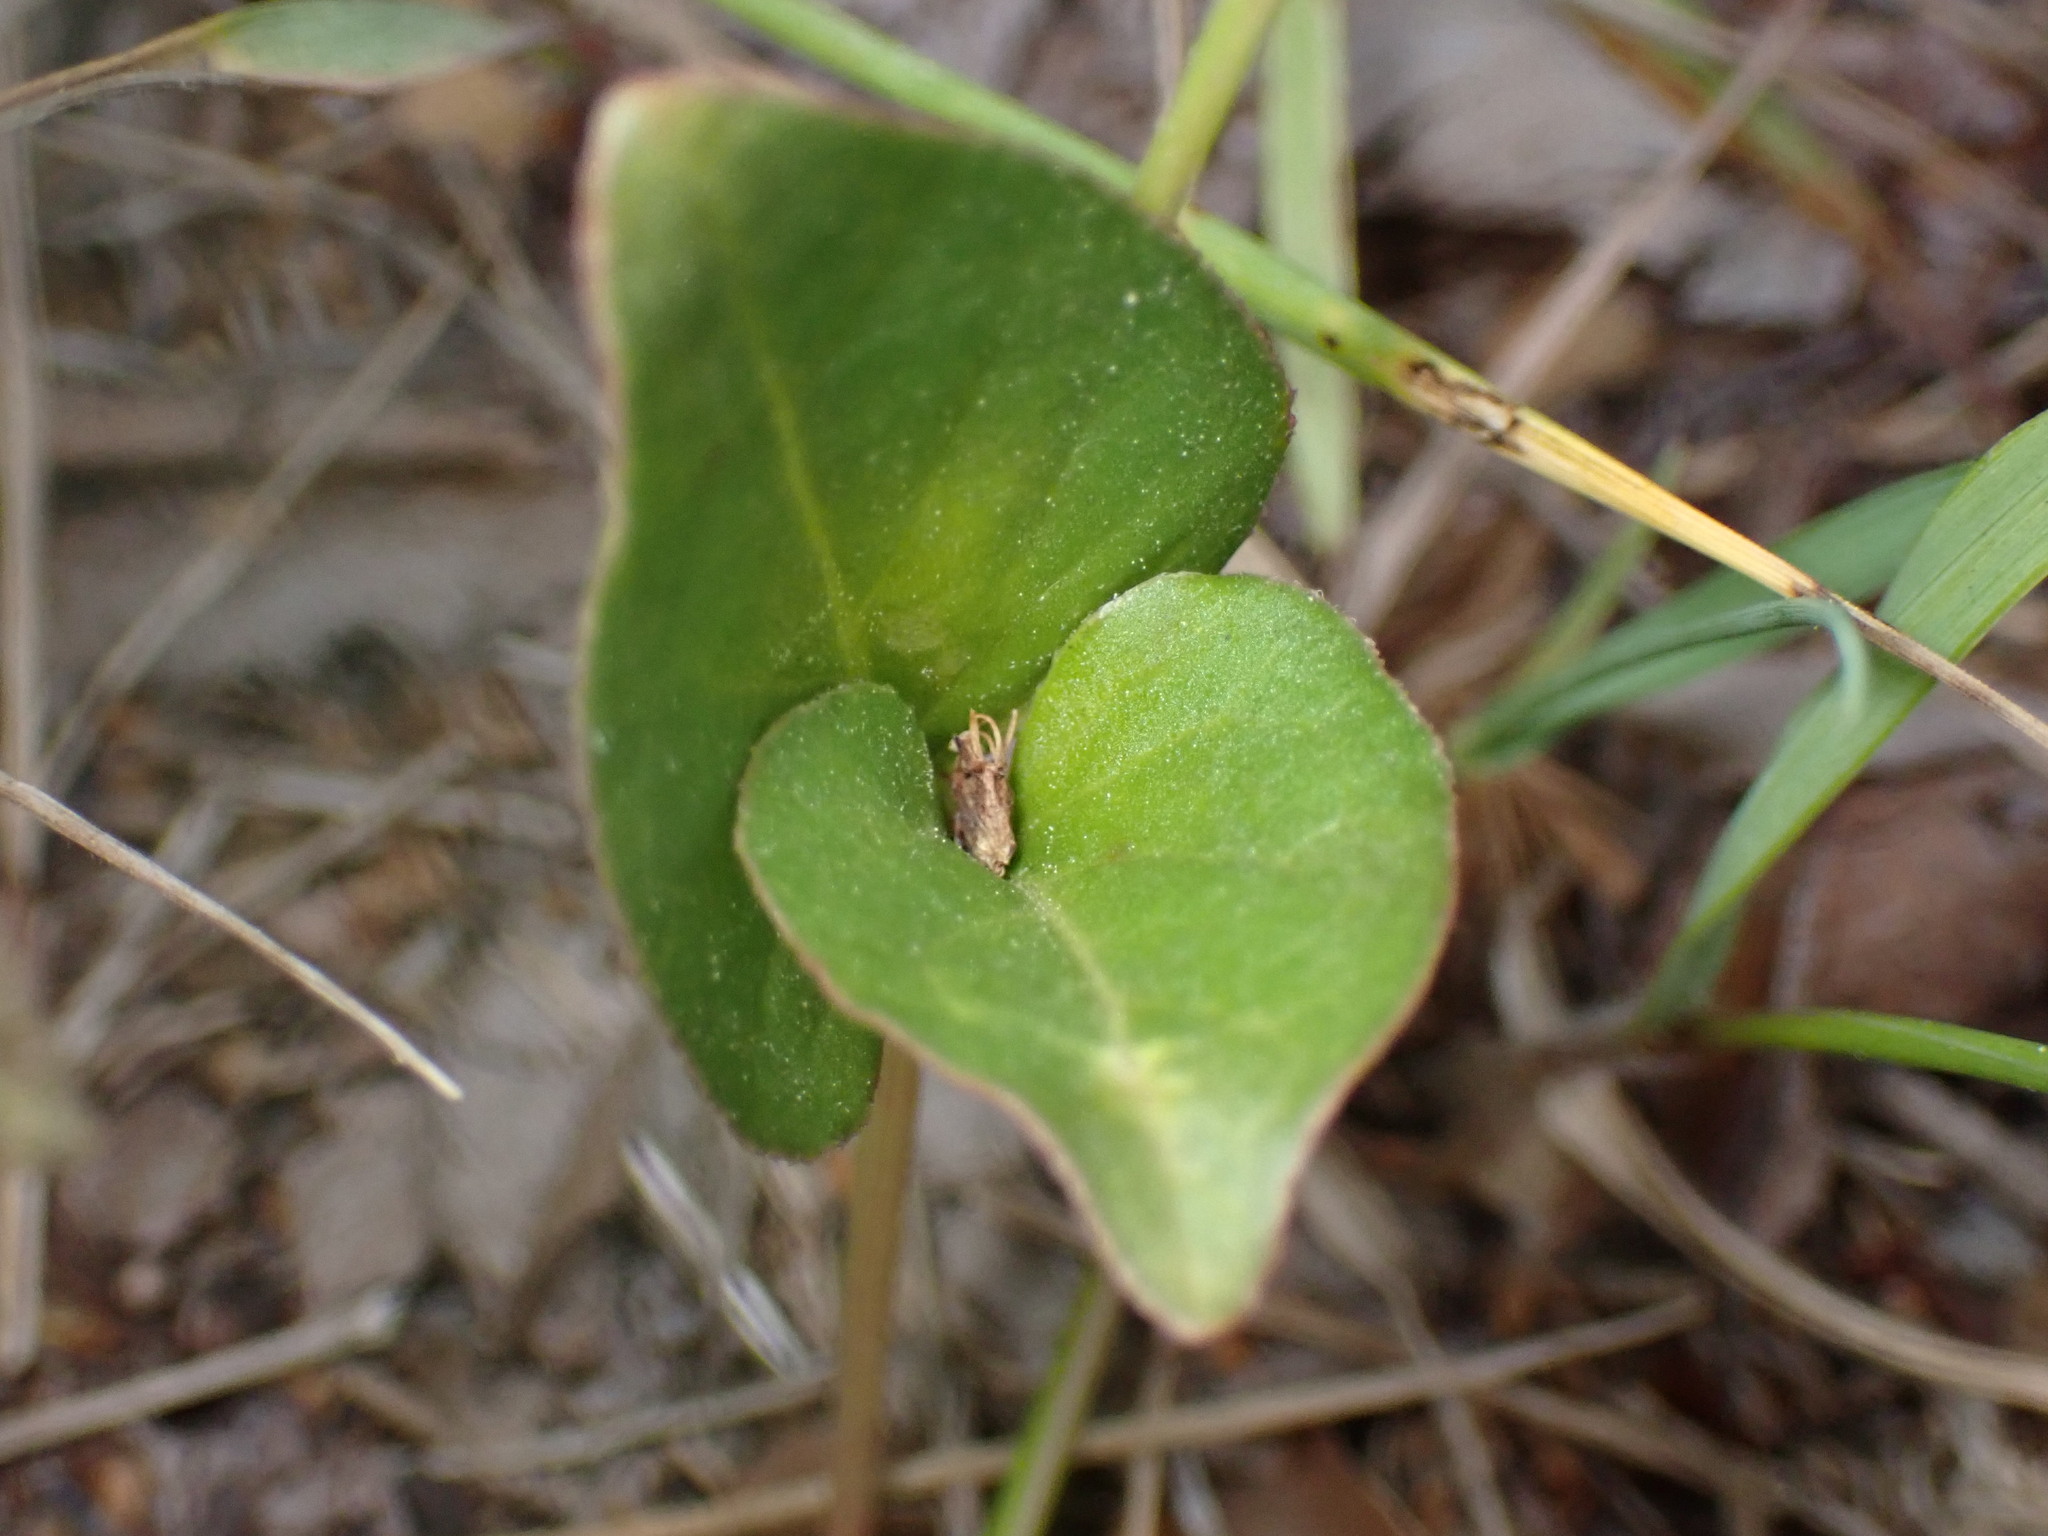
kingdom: Plantae
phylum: Tracheophyta
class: Magnoliopsida
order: Caryophyllales
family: Nyctaginaceae
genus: Mirabilis
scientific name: Mirabilis nyctaginea
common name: Umbrella wort
